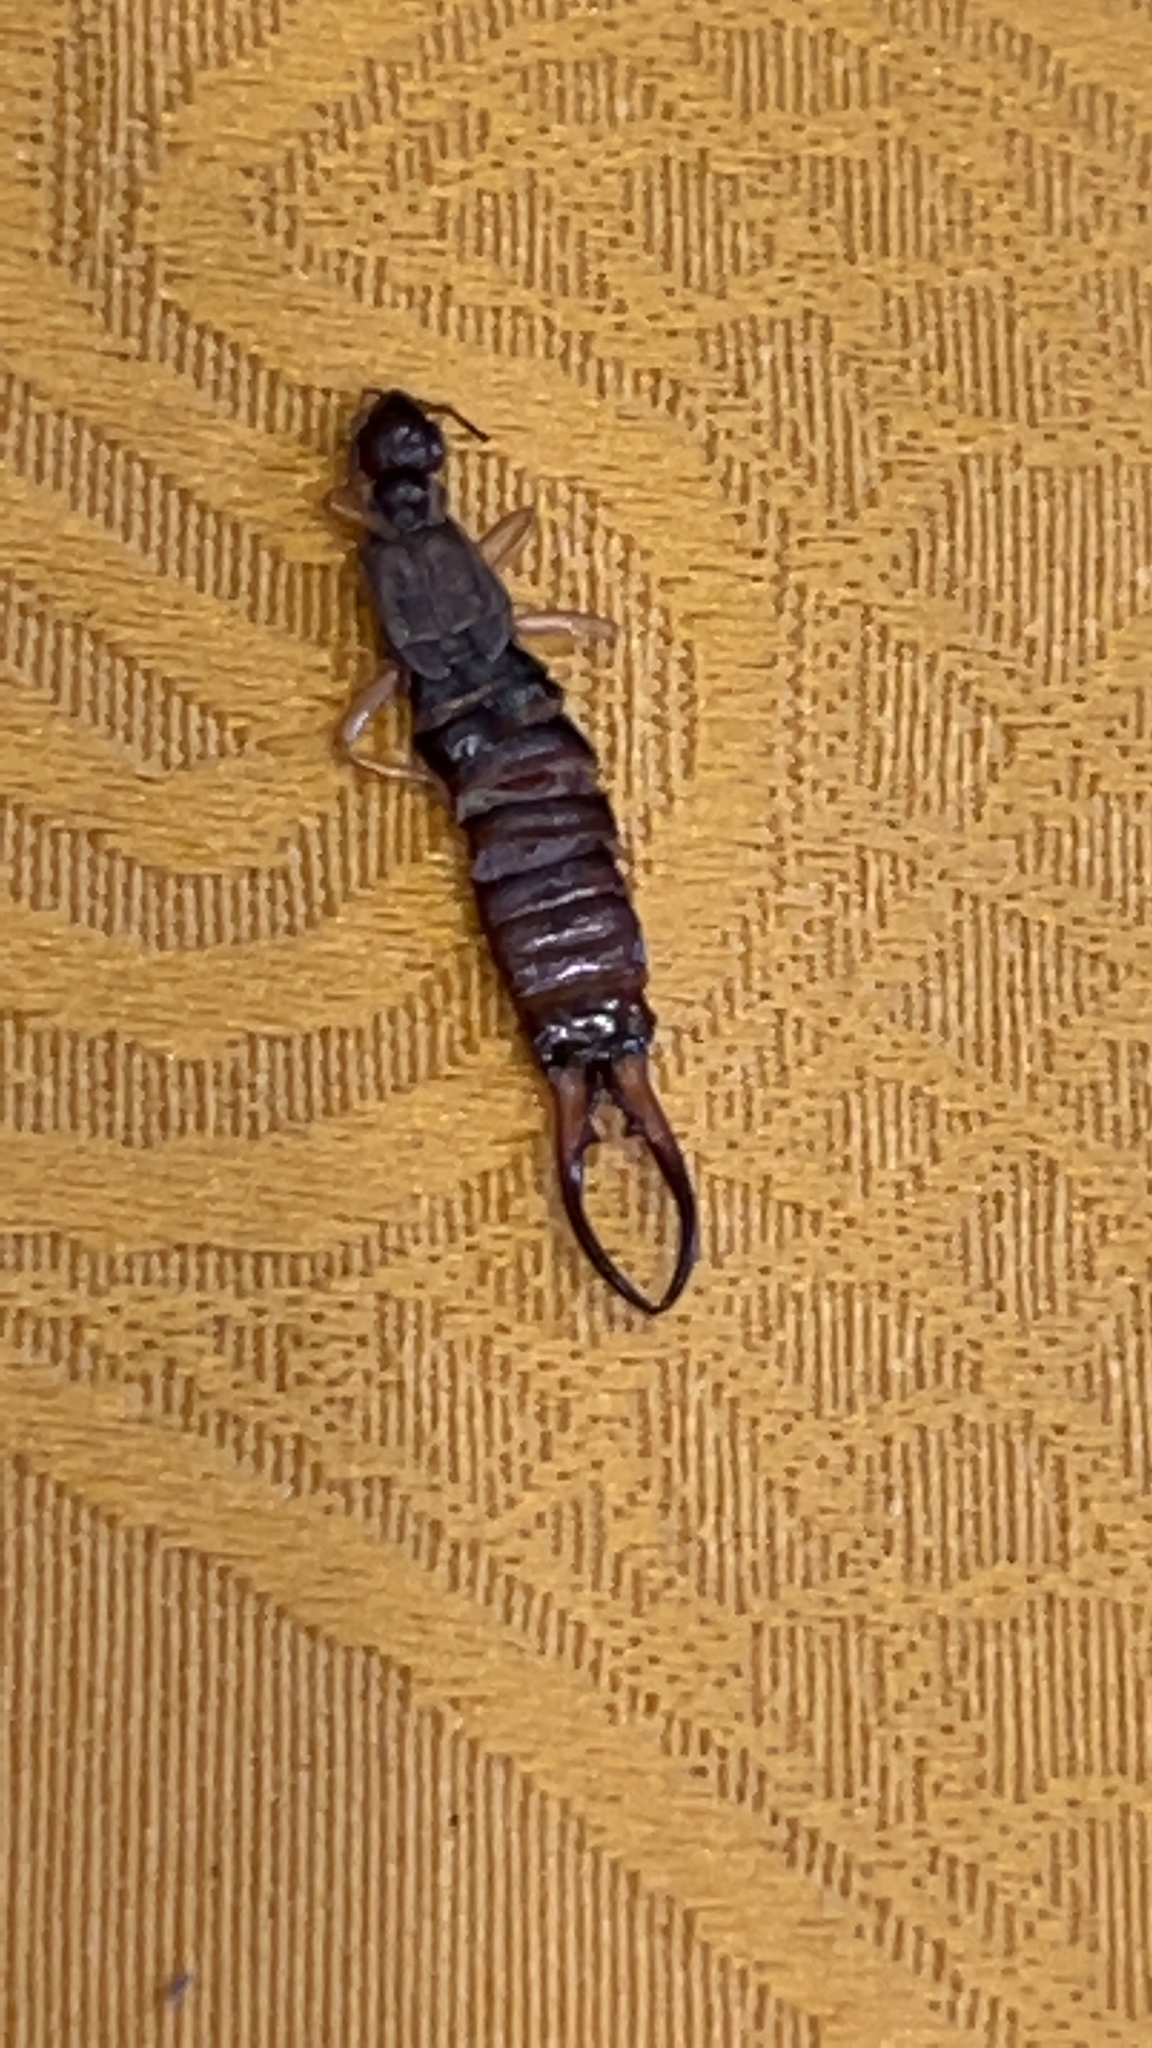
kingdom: Animalia
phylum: Arthropoda
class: Insecta
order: Dermaptera
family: Forficulidae
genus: Forficula
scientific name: Forficula
